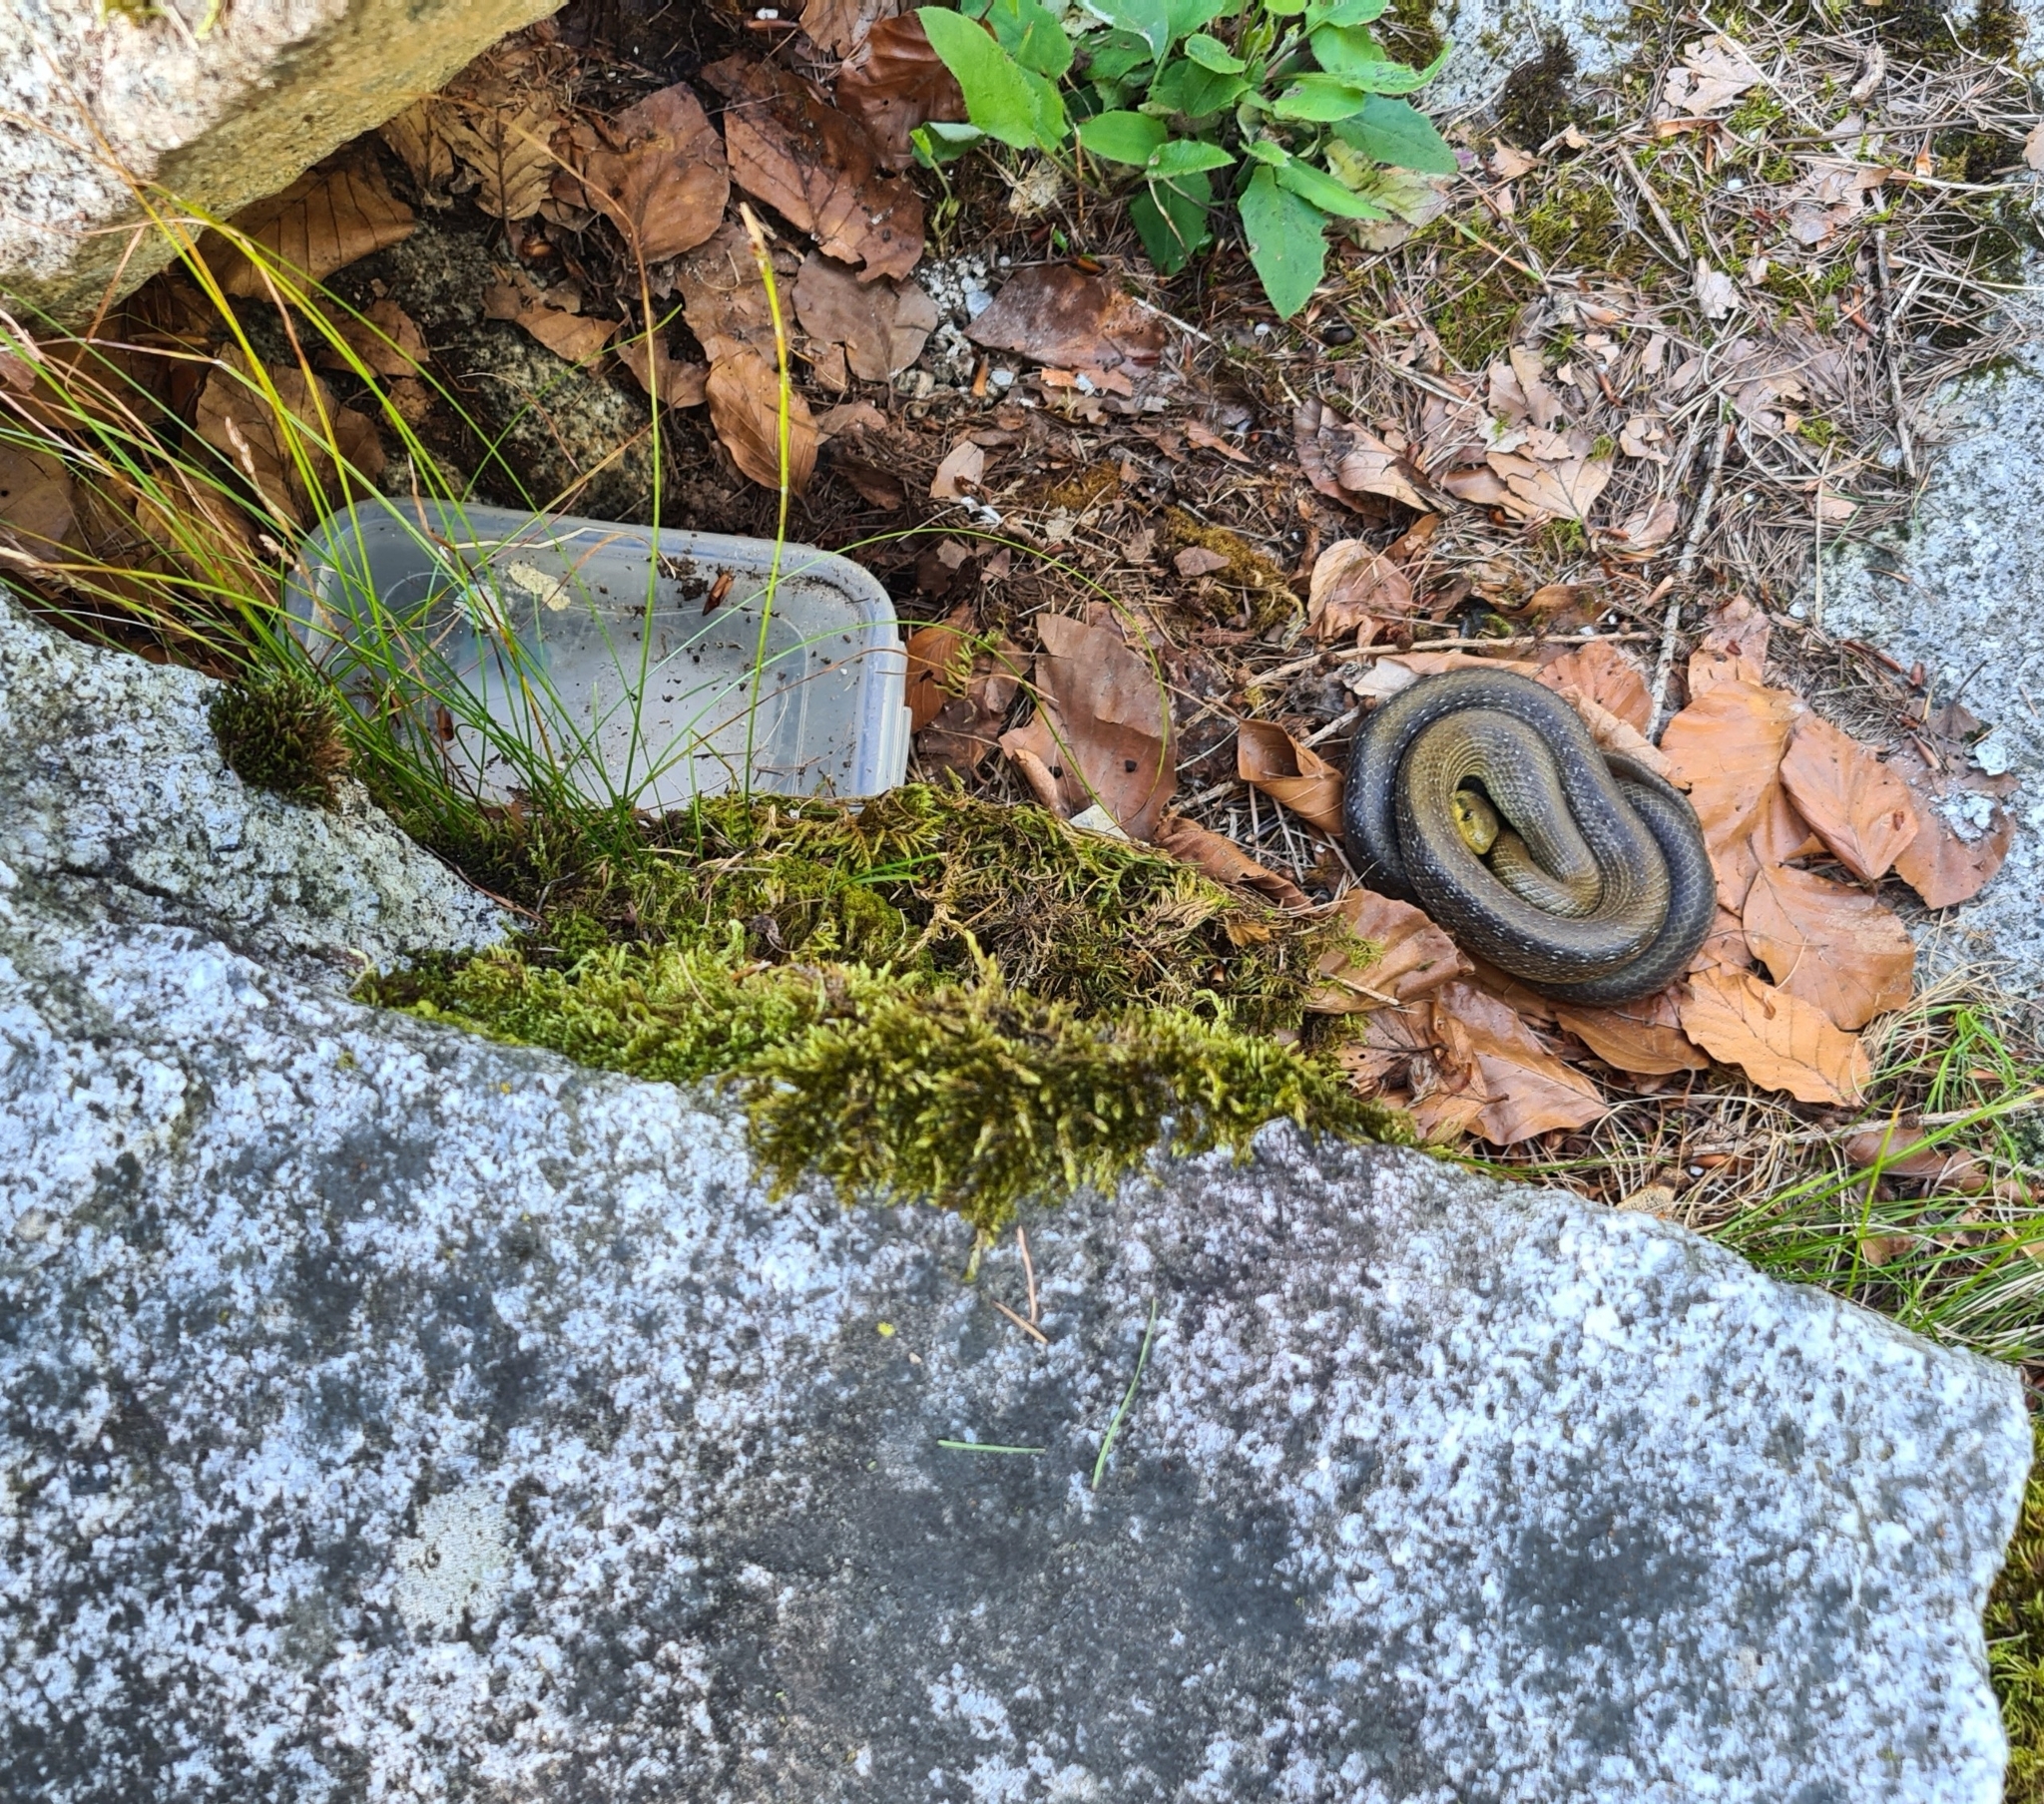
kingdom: Animalia
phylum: Chordata
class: Squamata
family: Colubridae
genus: Zamenis
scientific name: Zamenis longissimus
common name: Aesculapean snake
